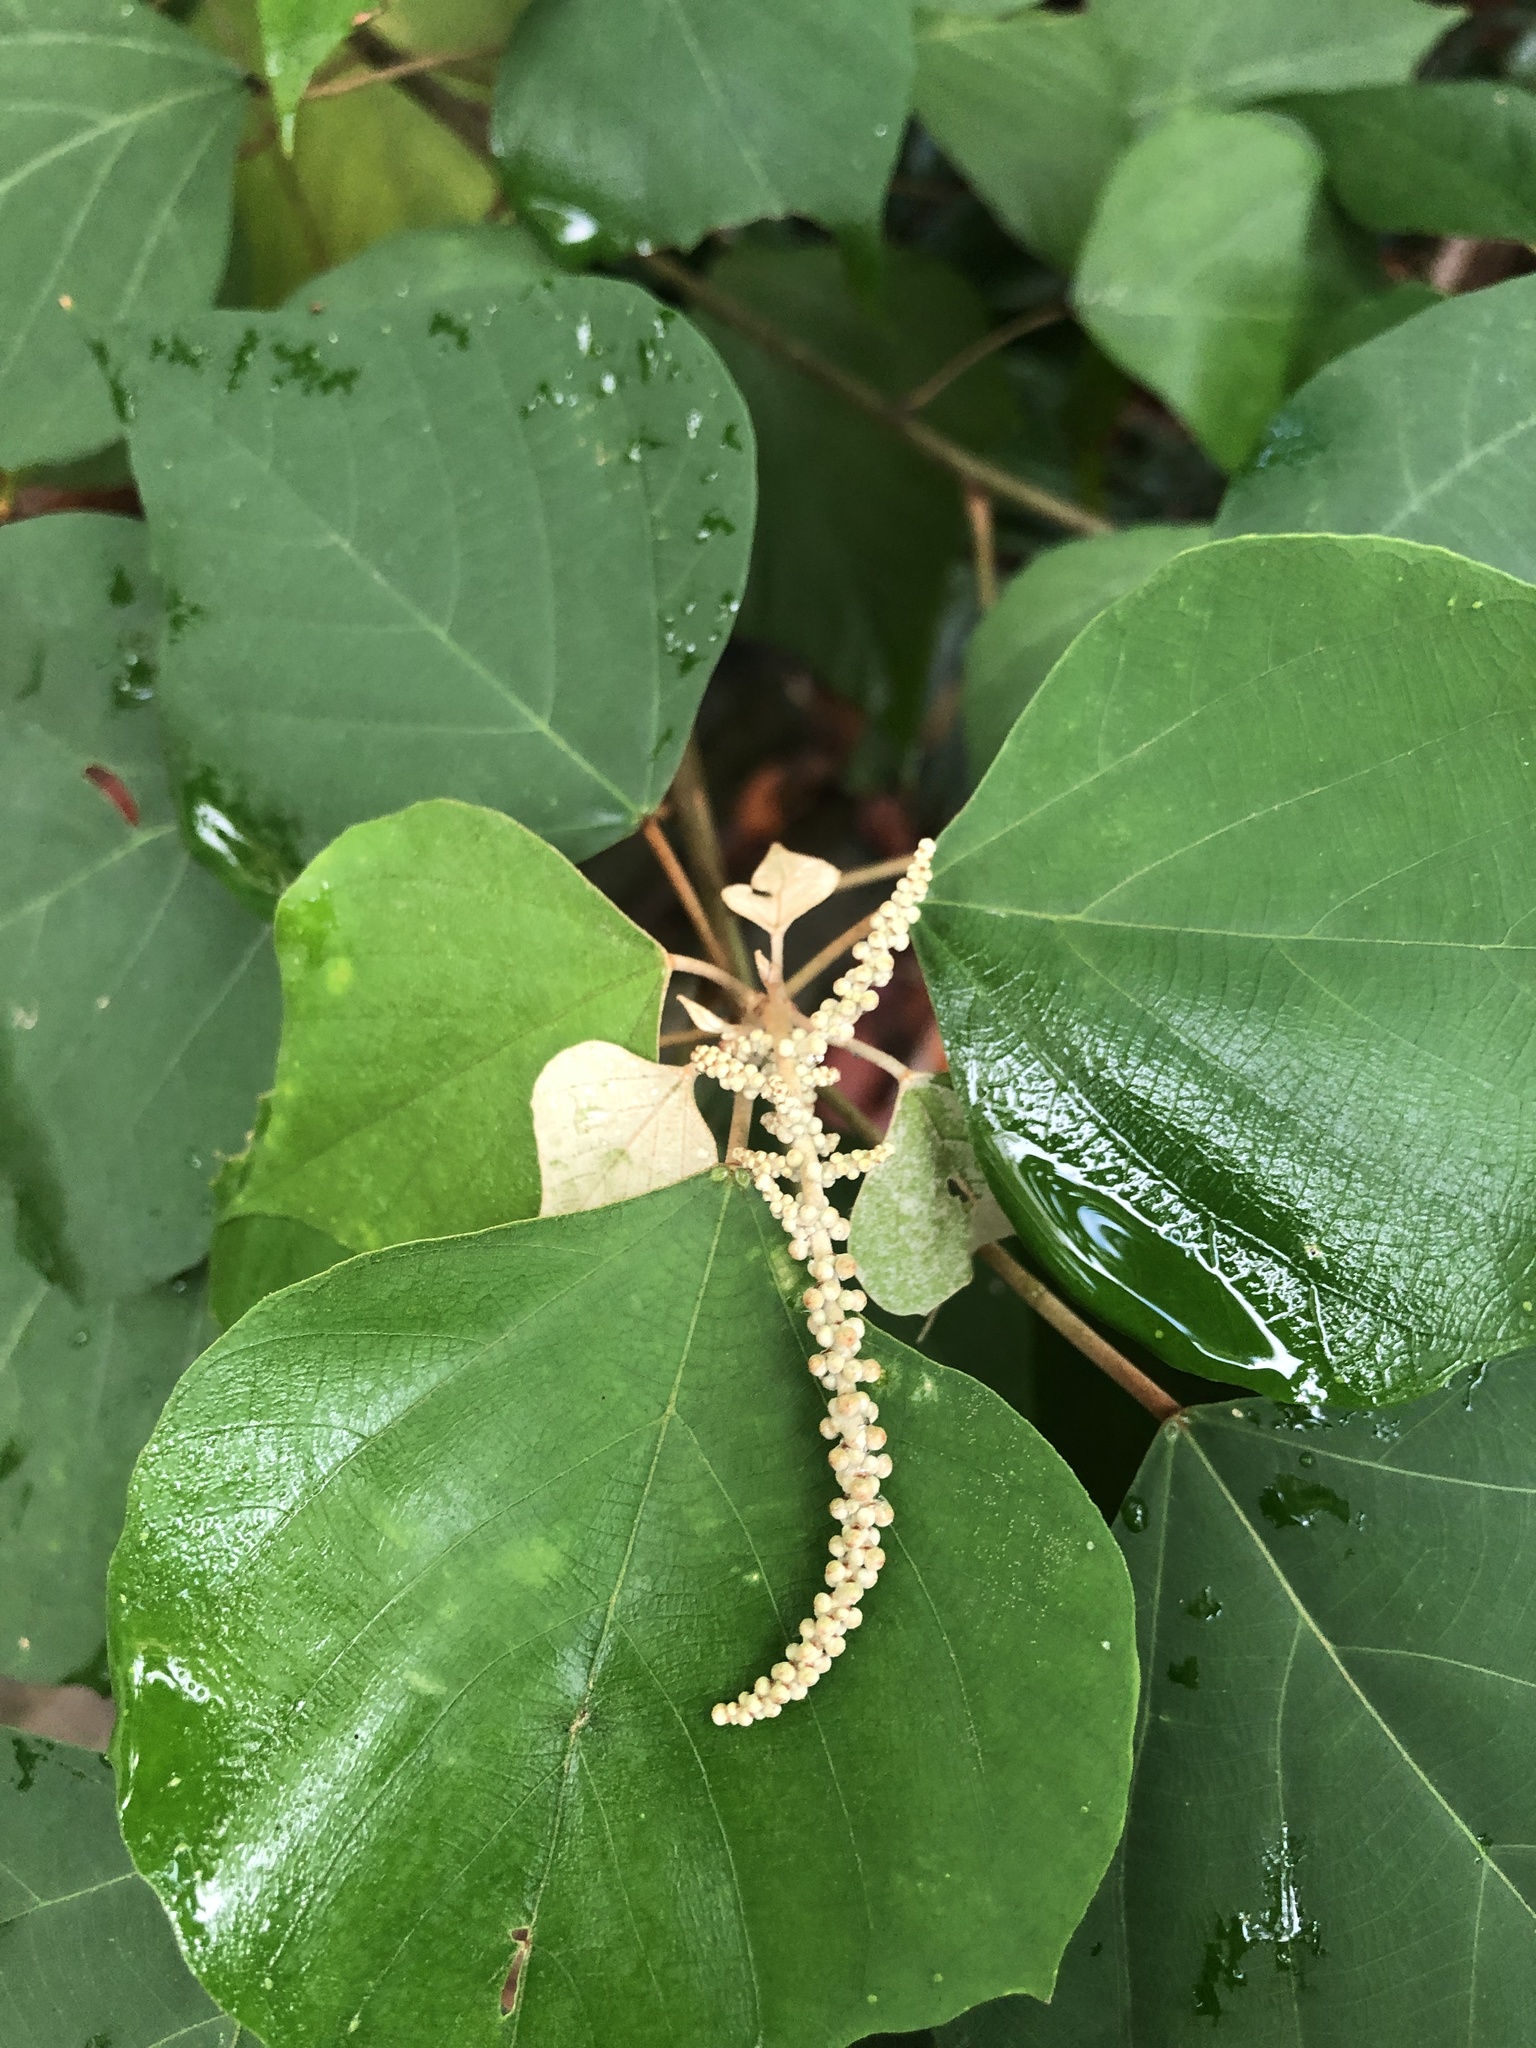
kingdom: Plantae
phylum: Tracheophyta
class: Magnoliopsida
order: Malpighiales
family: Euphorbiaceae
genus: Mallotus
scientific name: Mallotus paniculatus
